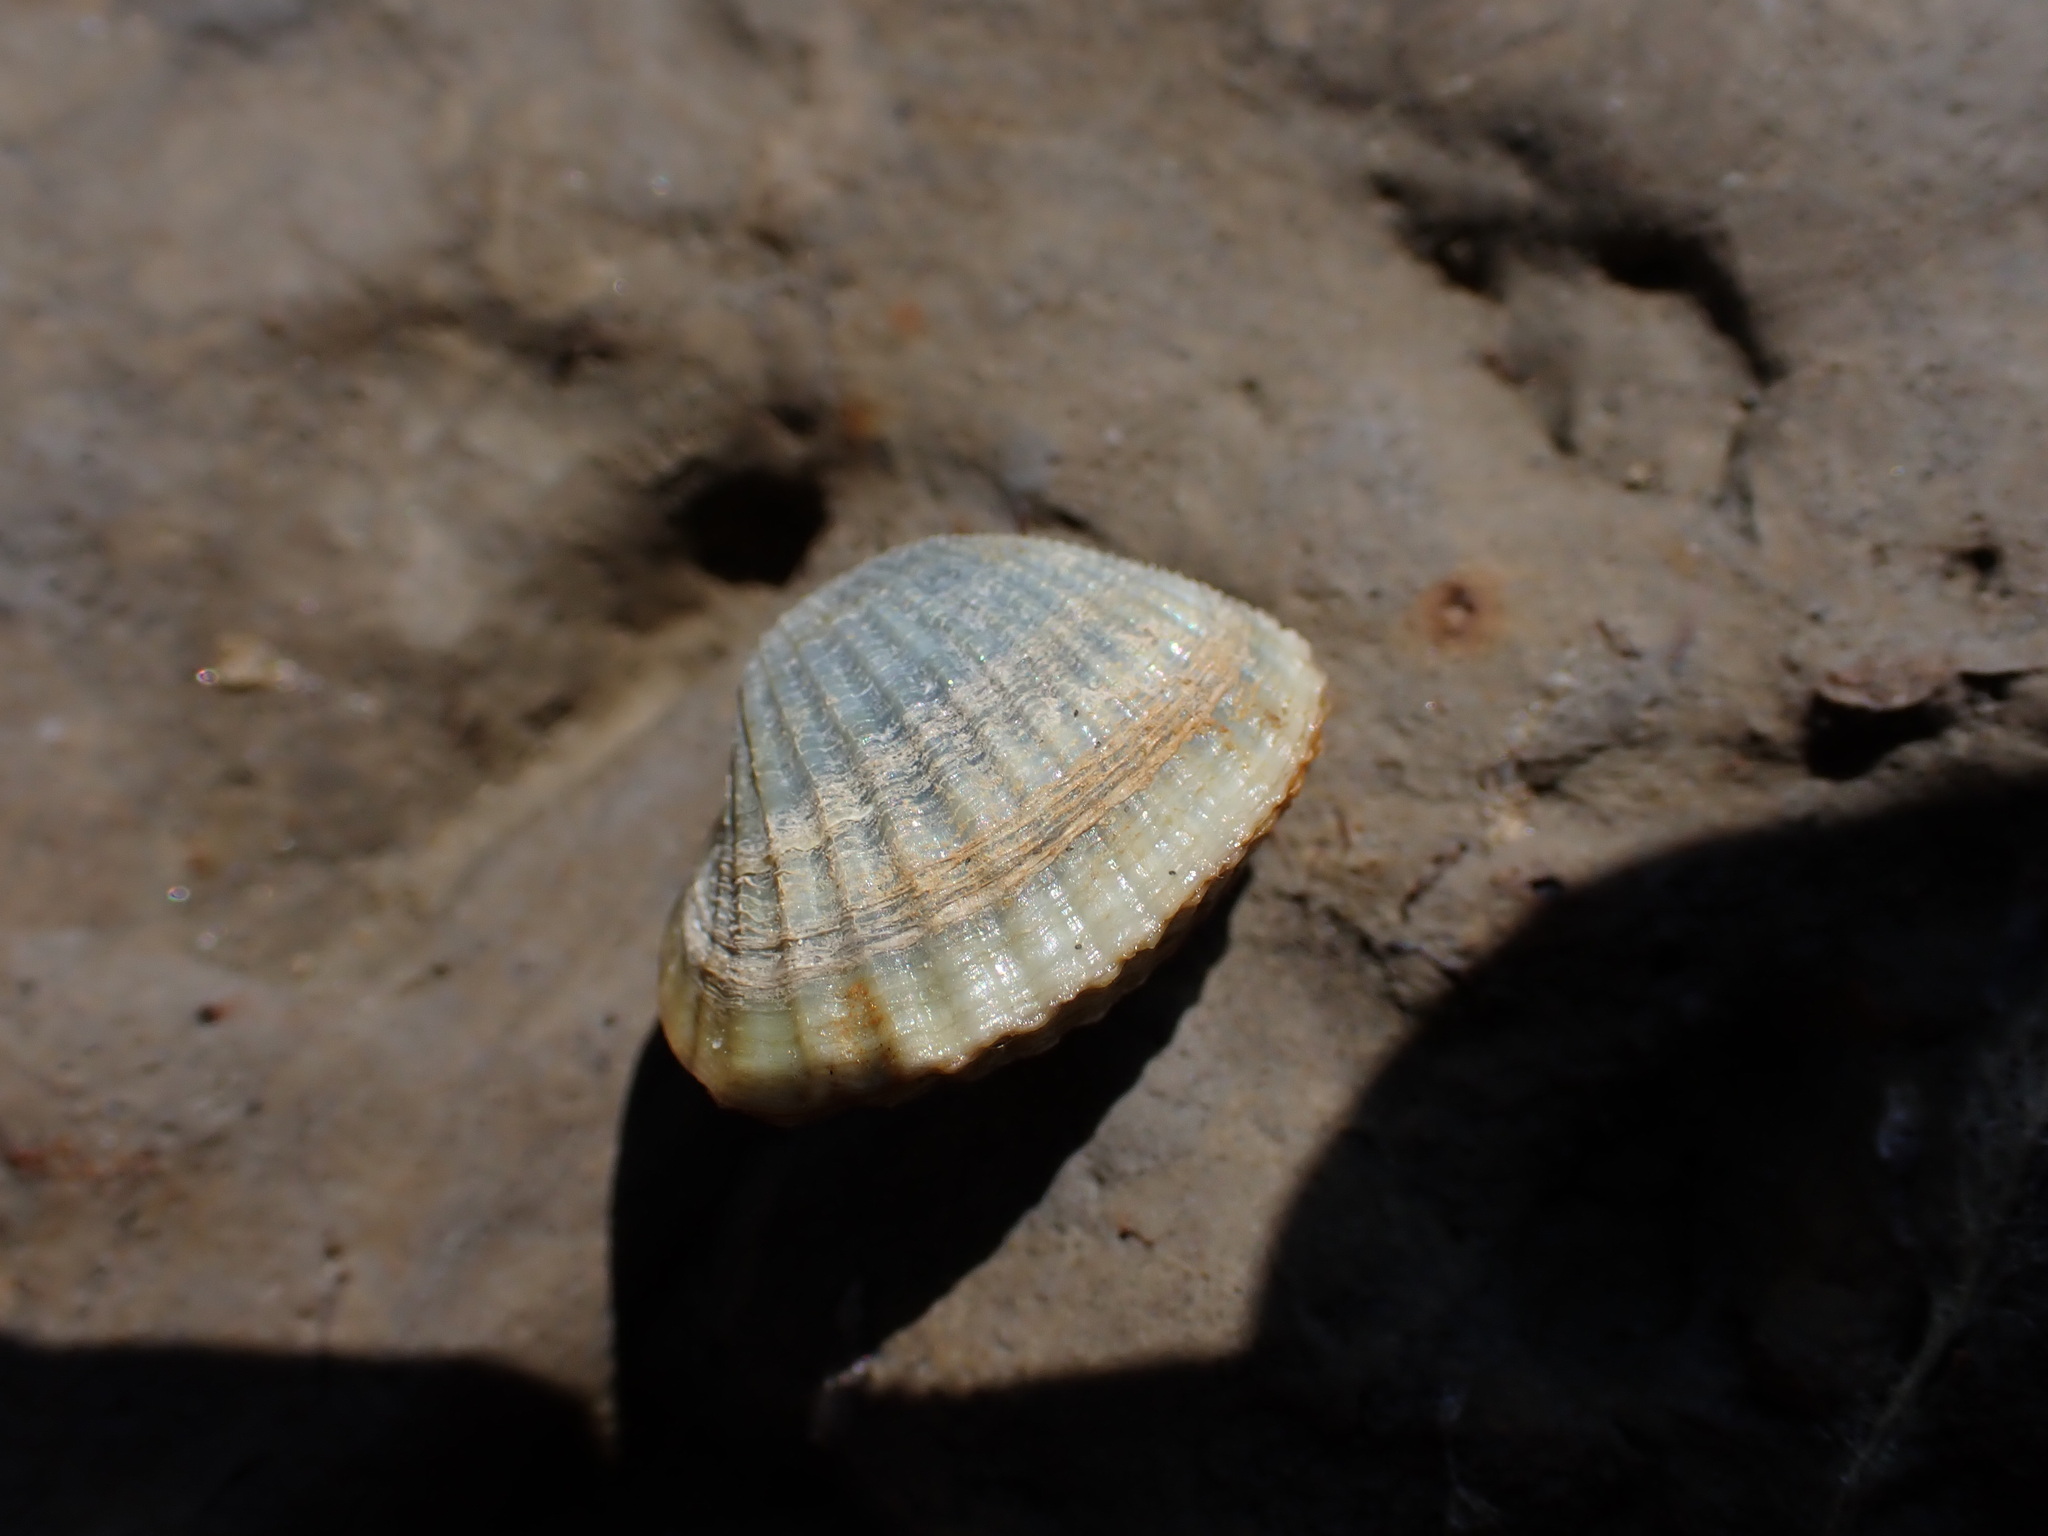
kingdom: Animalia
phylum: Mollusca
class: Bivalvia
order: Cardiida
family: Cardiidae
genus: Cerastoderma
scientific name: Cerastoderma glaucum
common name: Lagoon cockle
